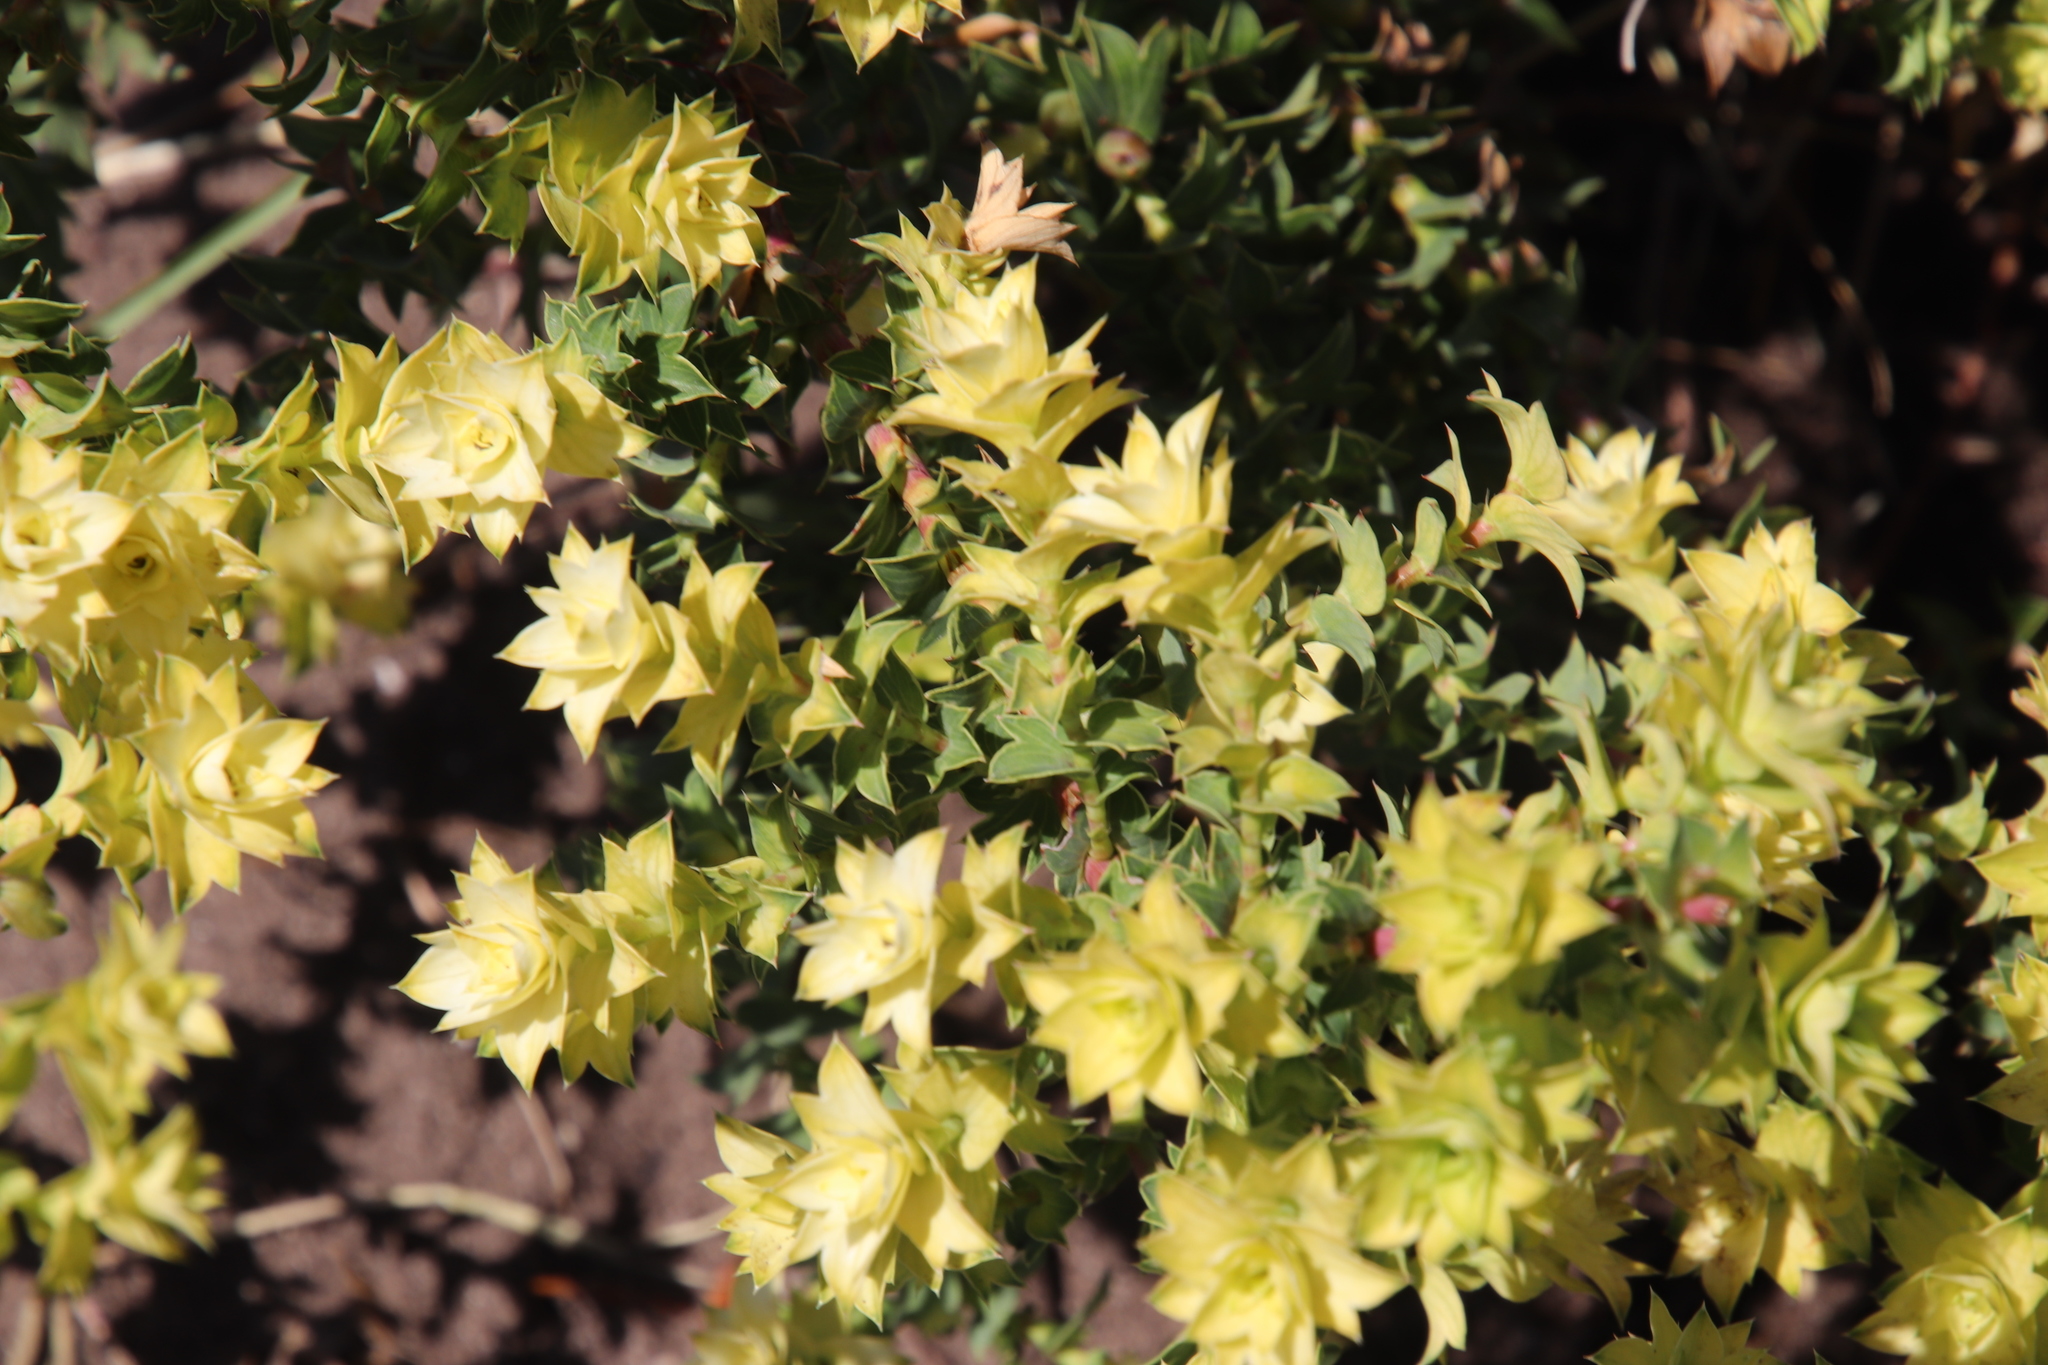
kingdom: Plantae
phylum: Tracheophyta
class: Magnoliopsida
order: Rosales
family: Rosaceae
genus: Cliffortia
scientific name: Cliffortia schlechteri
